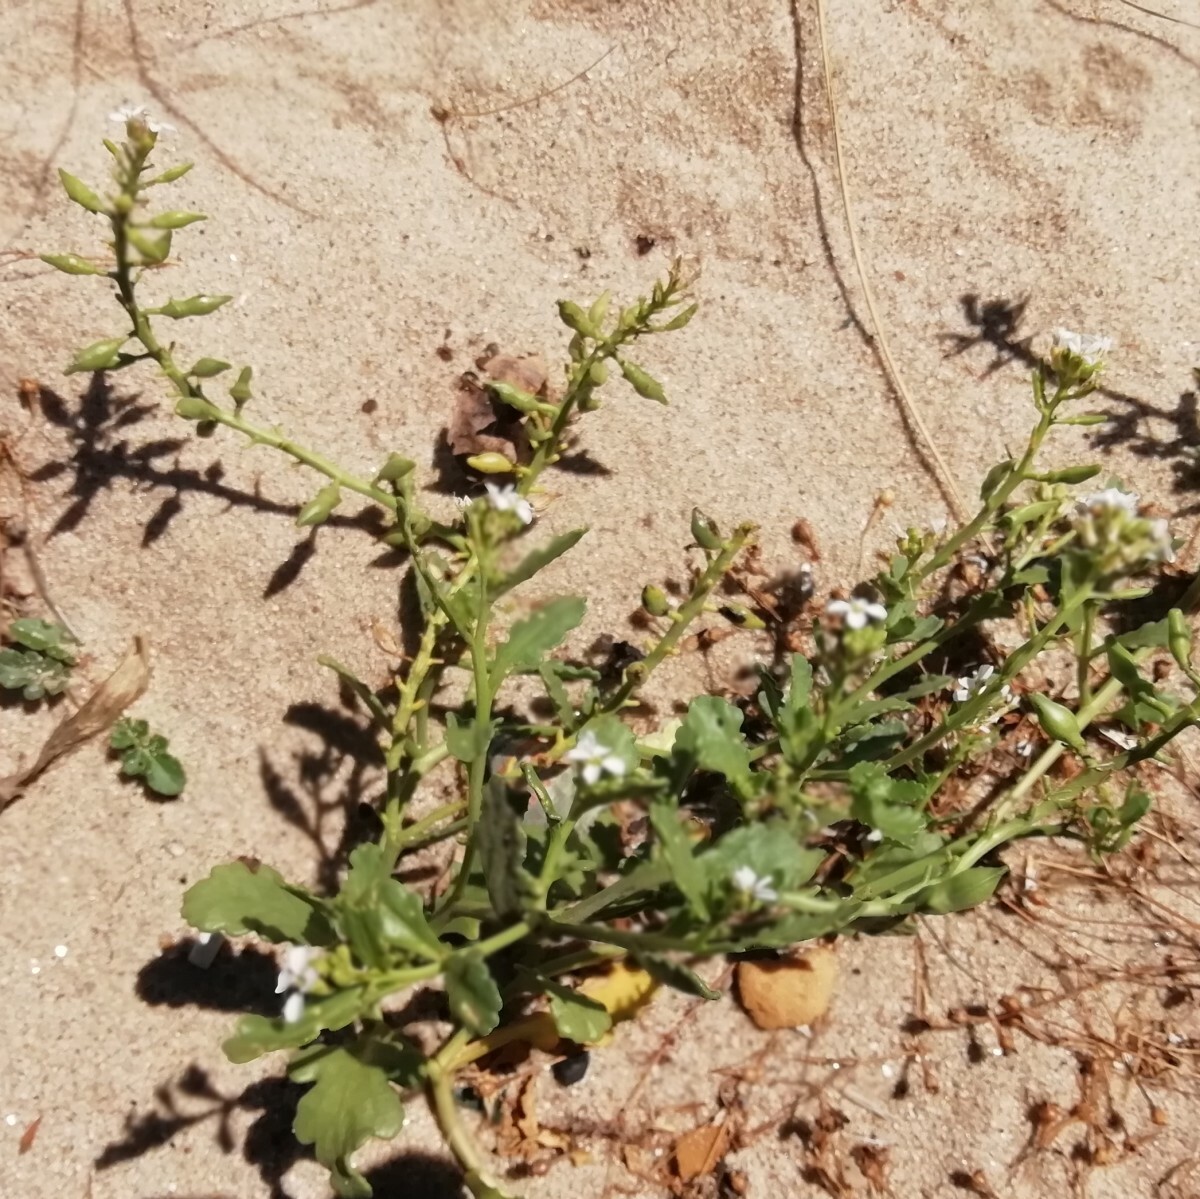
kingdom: Plantae
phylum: Tracheophyta
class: Magnoliopsida
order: Brassicales
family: Brassicaceae
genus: Cakile
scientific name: Cakile maritima
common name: Sea rocket
